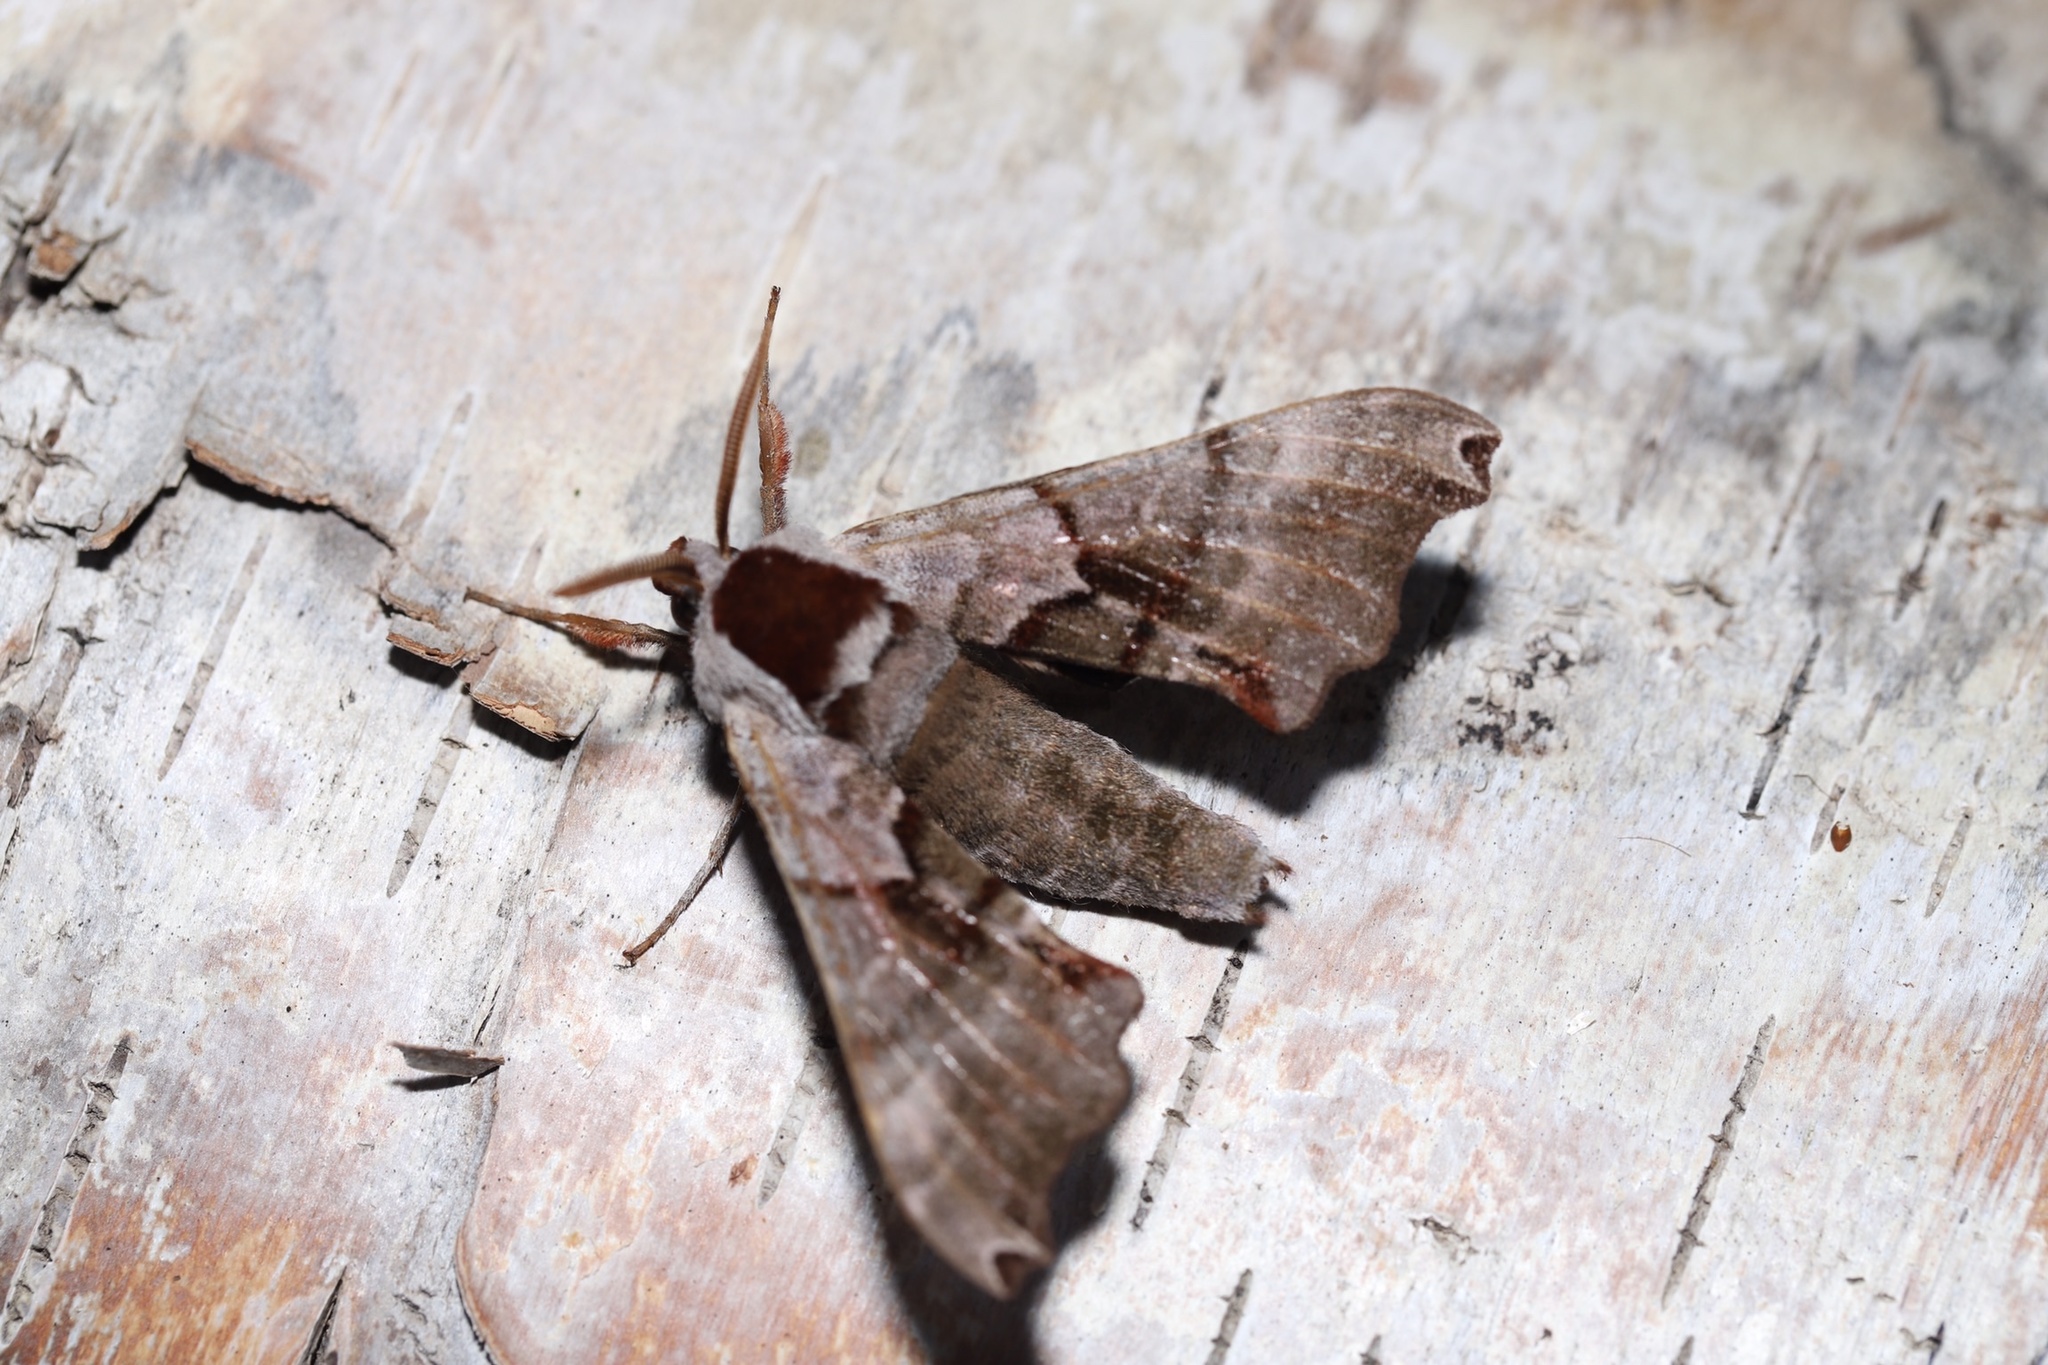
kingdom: Animalia
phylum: Arthropoda
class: Insecta
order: Lepidoptera
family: Sphingidae
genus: Smerinthus
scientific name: Smerinthus jamaicensis
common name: Twin spotted sphinx
